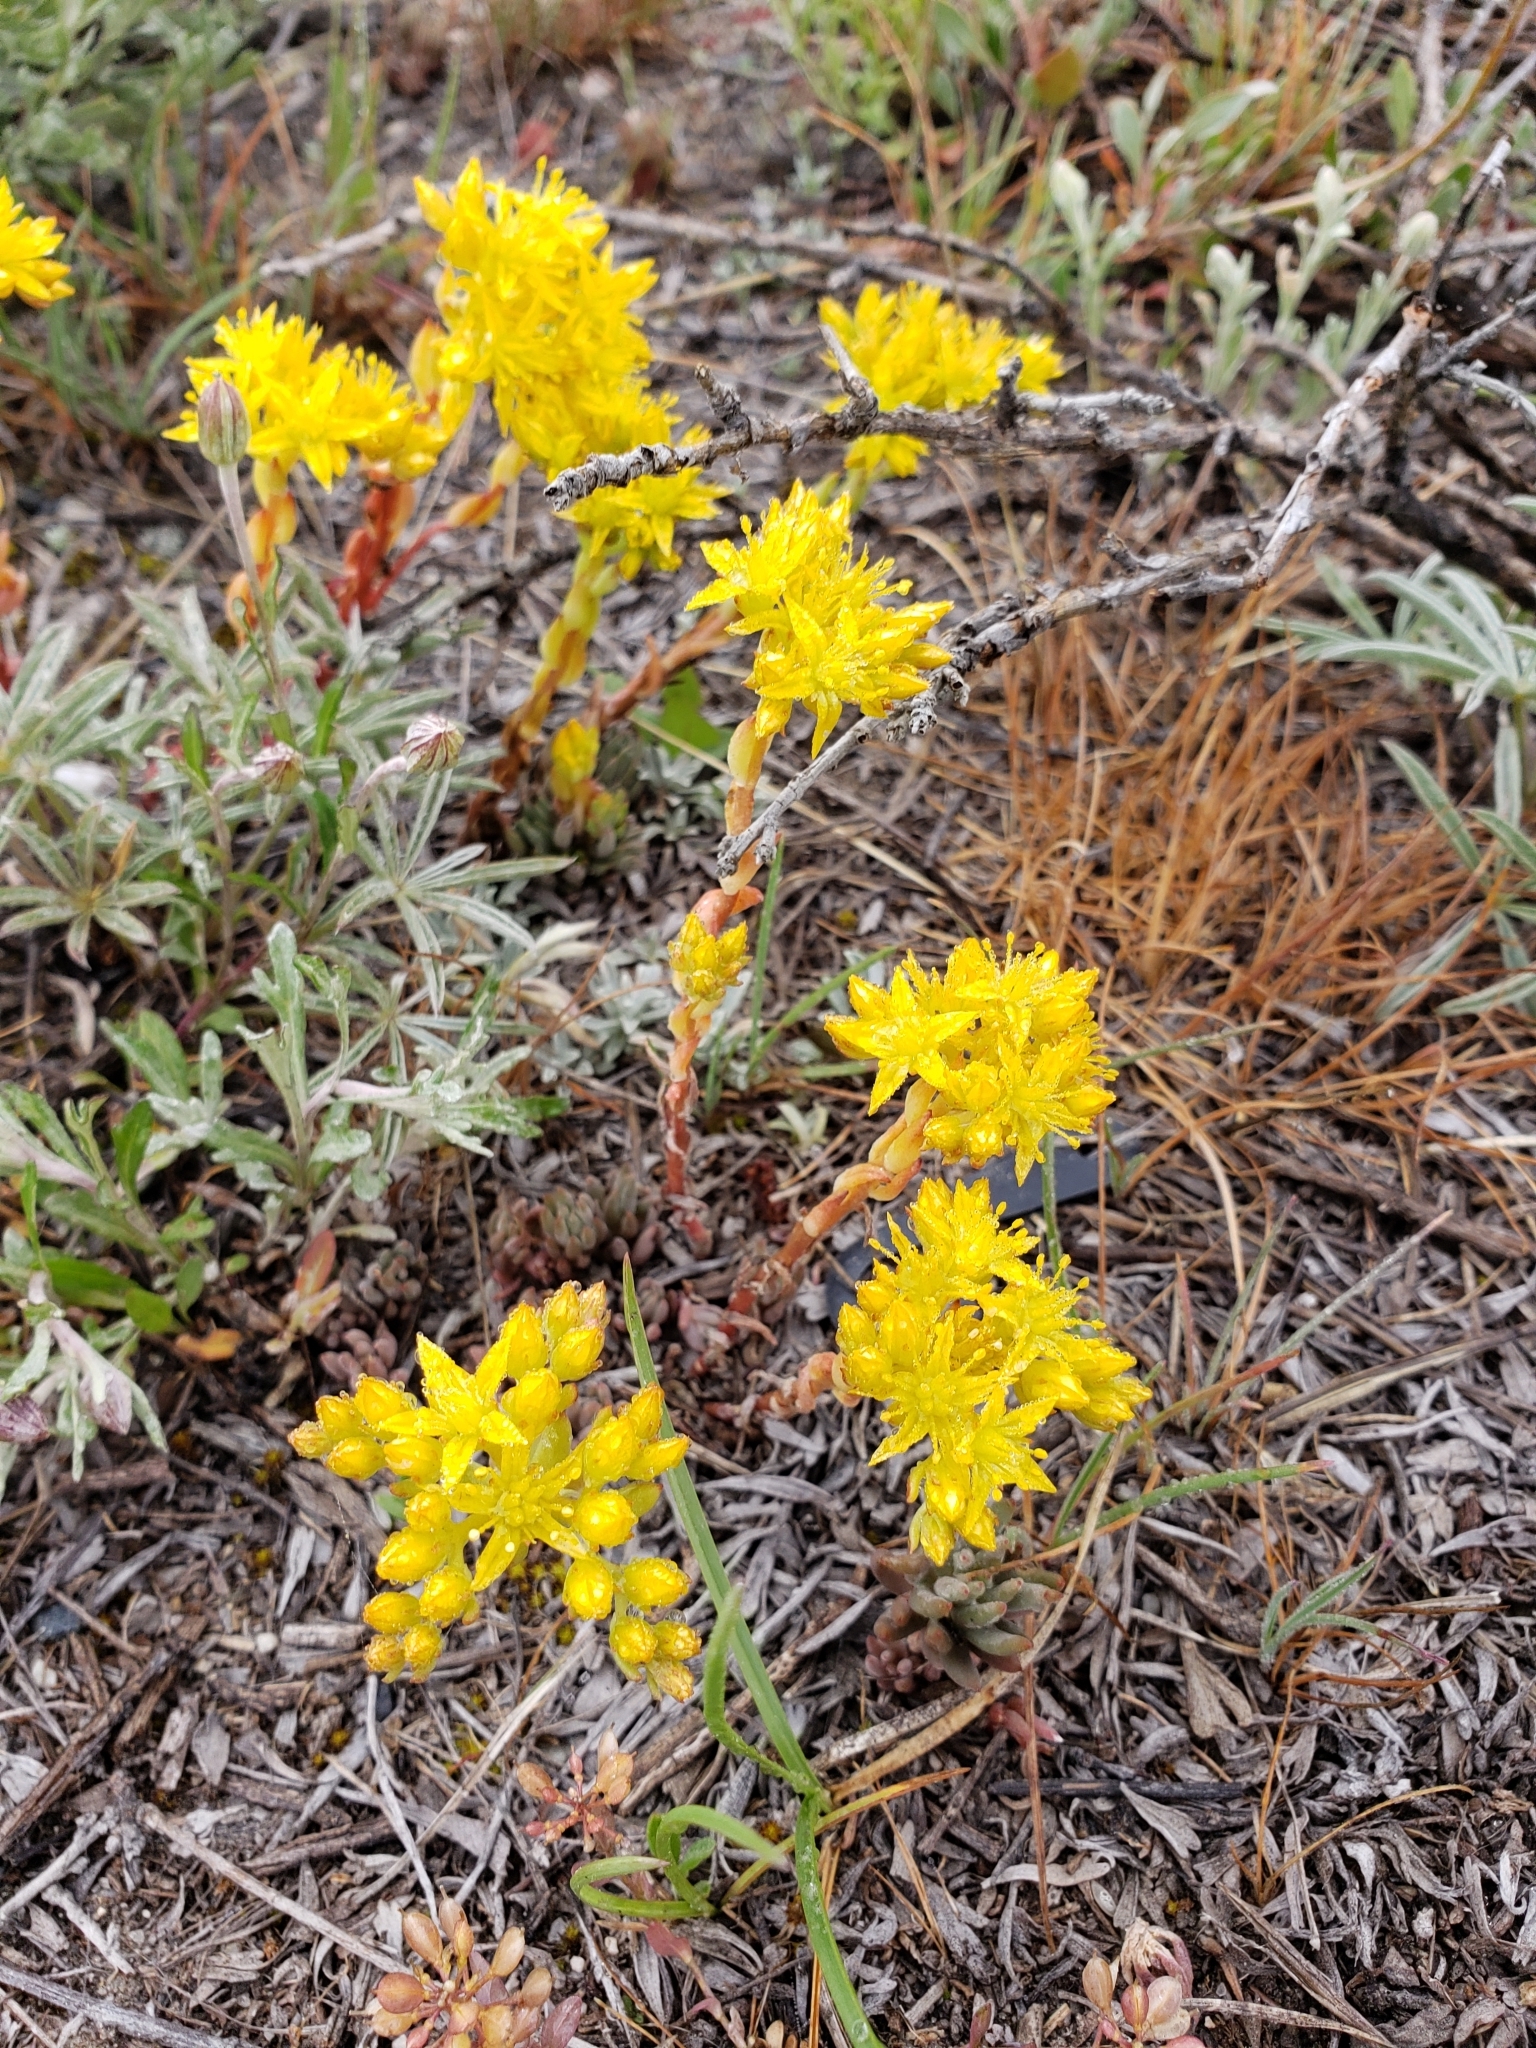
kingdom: Plantae
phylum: Tracheophyta
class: Magnoliopsida
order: Saxifragales
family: Crassulaceae
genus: Sedum
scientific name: Sedum lanceolatum
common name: Common stonecrop
